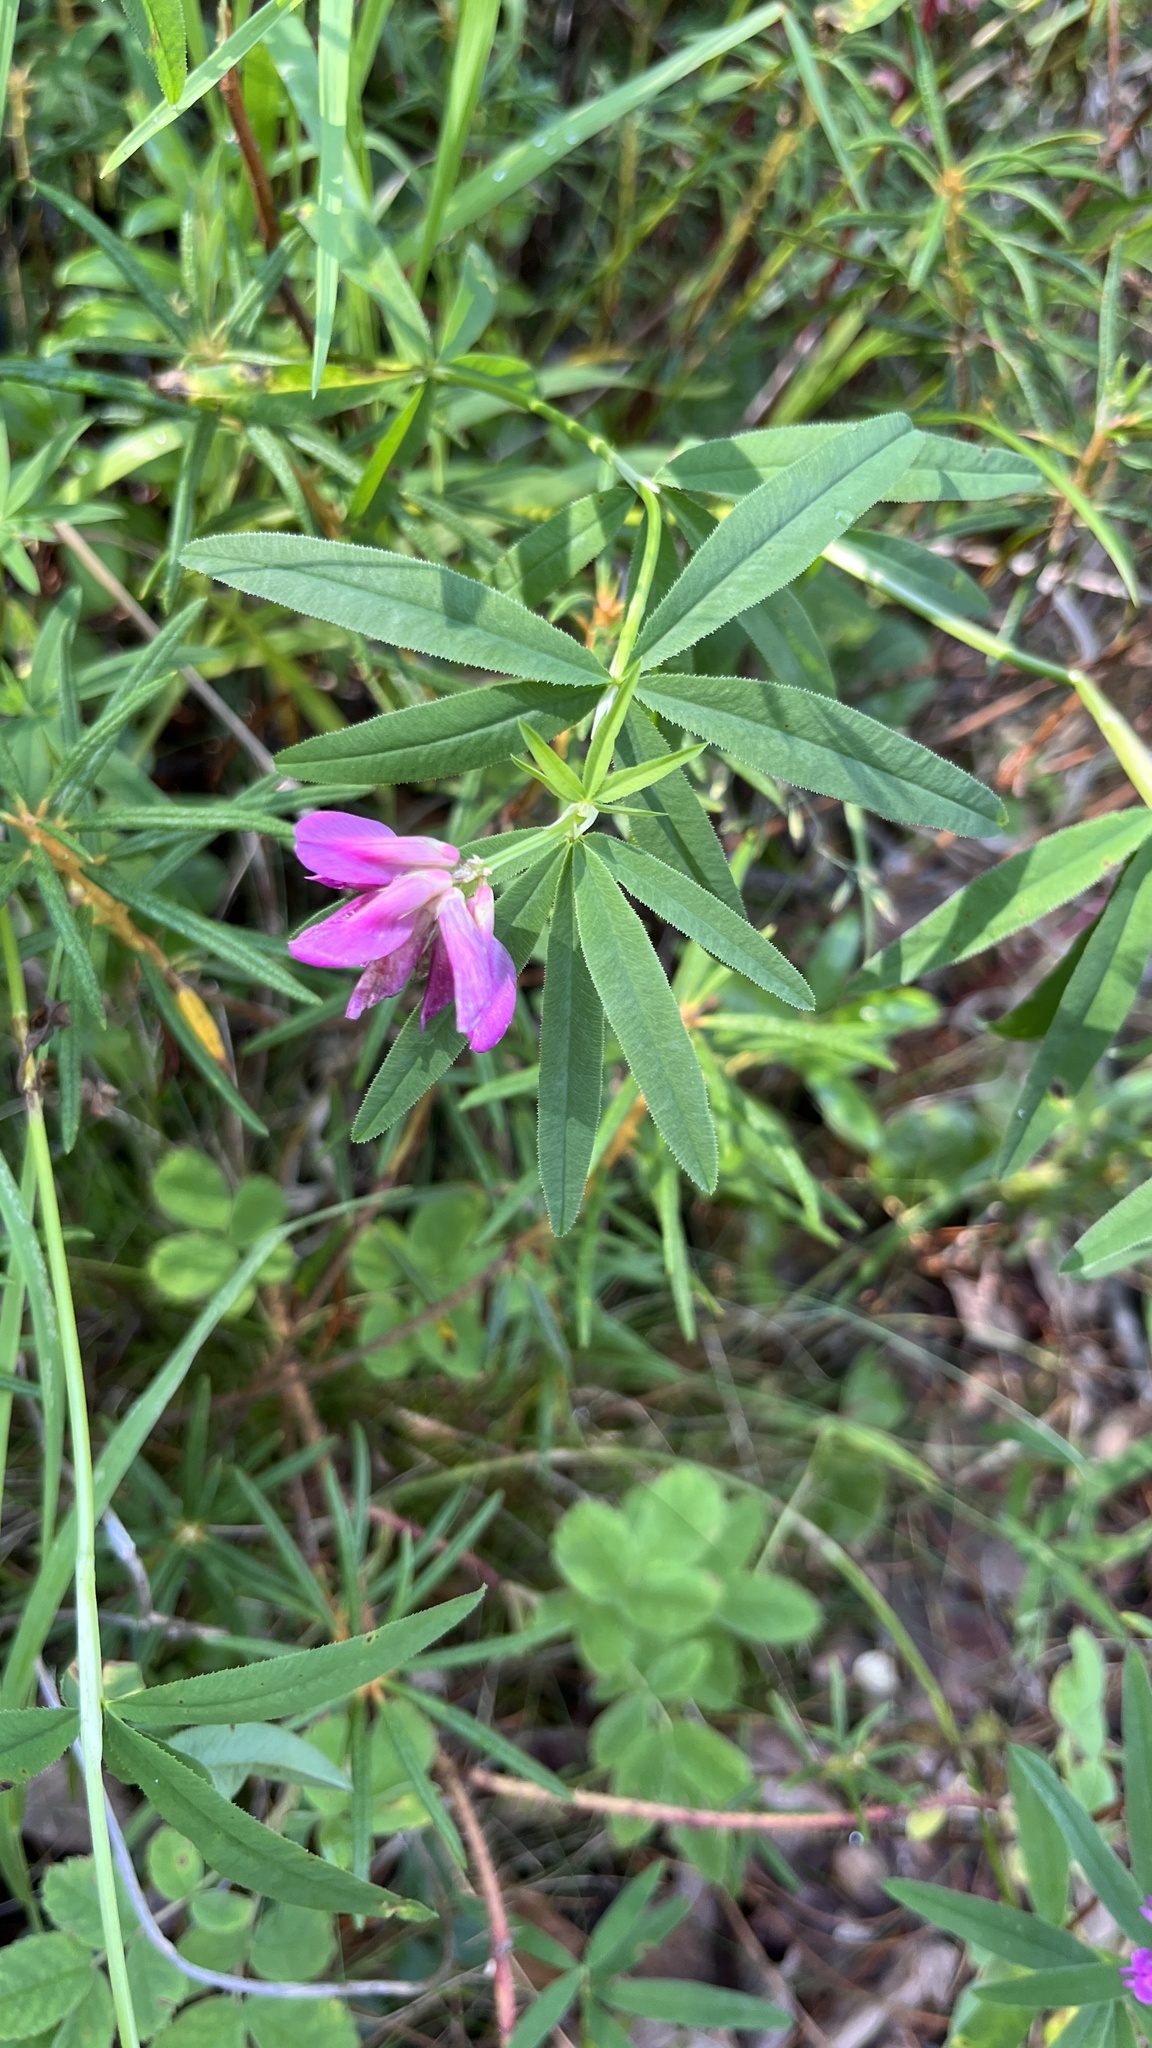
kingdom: Plantae
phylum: Tracheophyta
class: Magnoliopsida
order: Fabales
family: Fabaceae
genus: Trifolium
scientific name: Trifolium lupinaster
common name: Lupine clover
